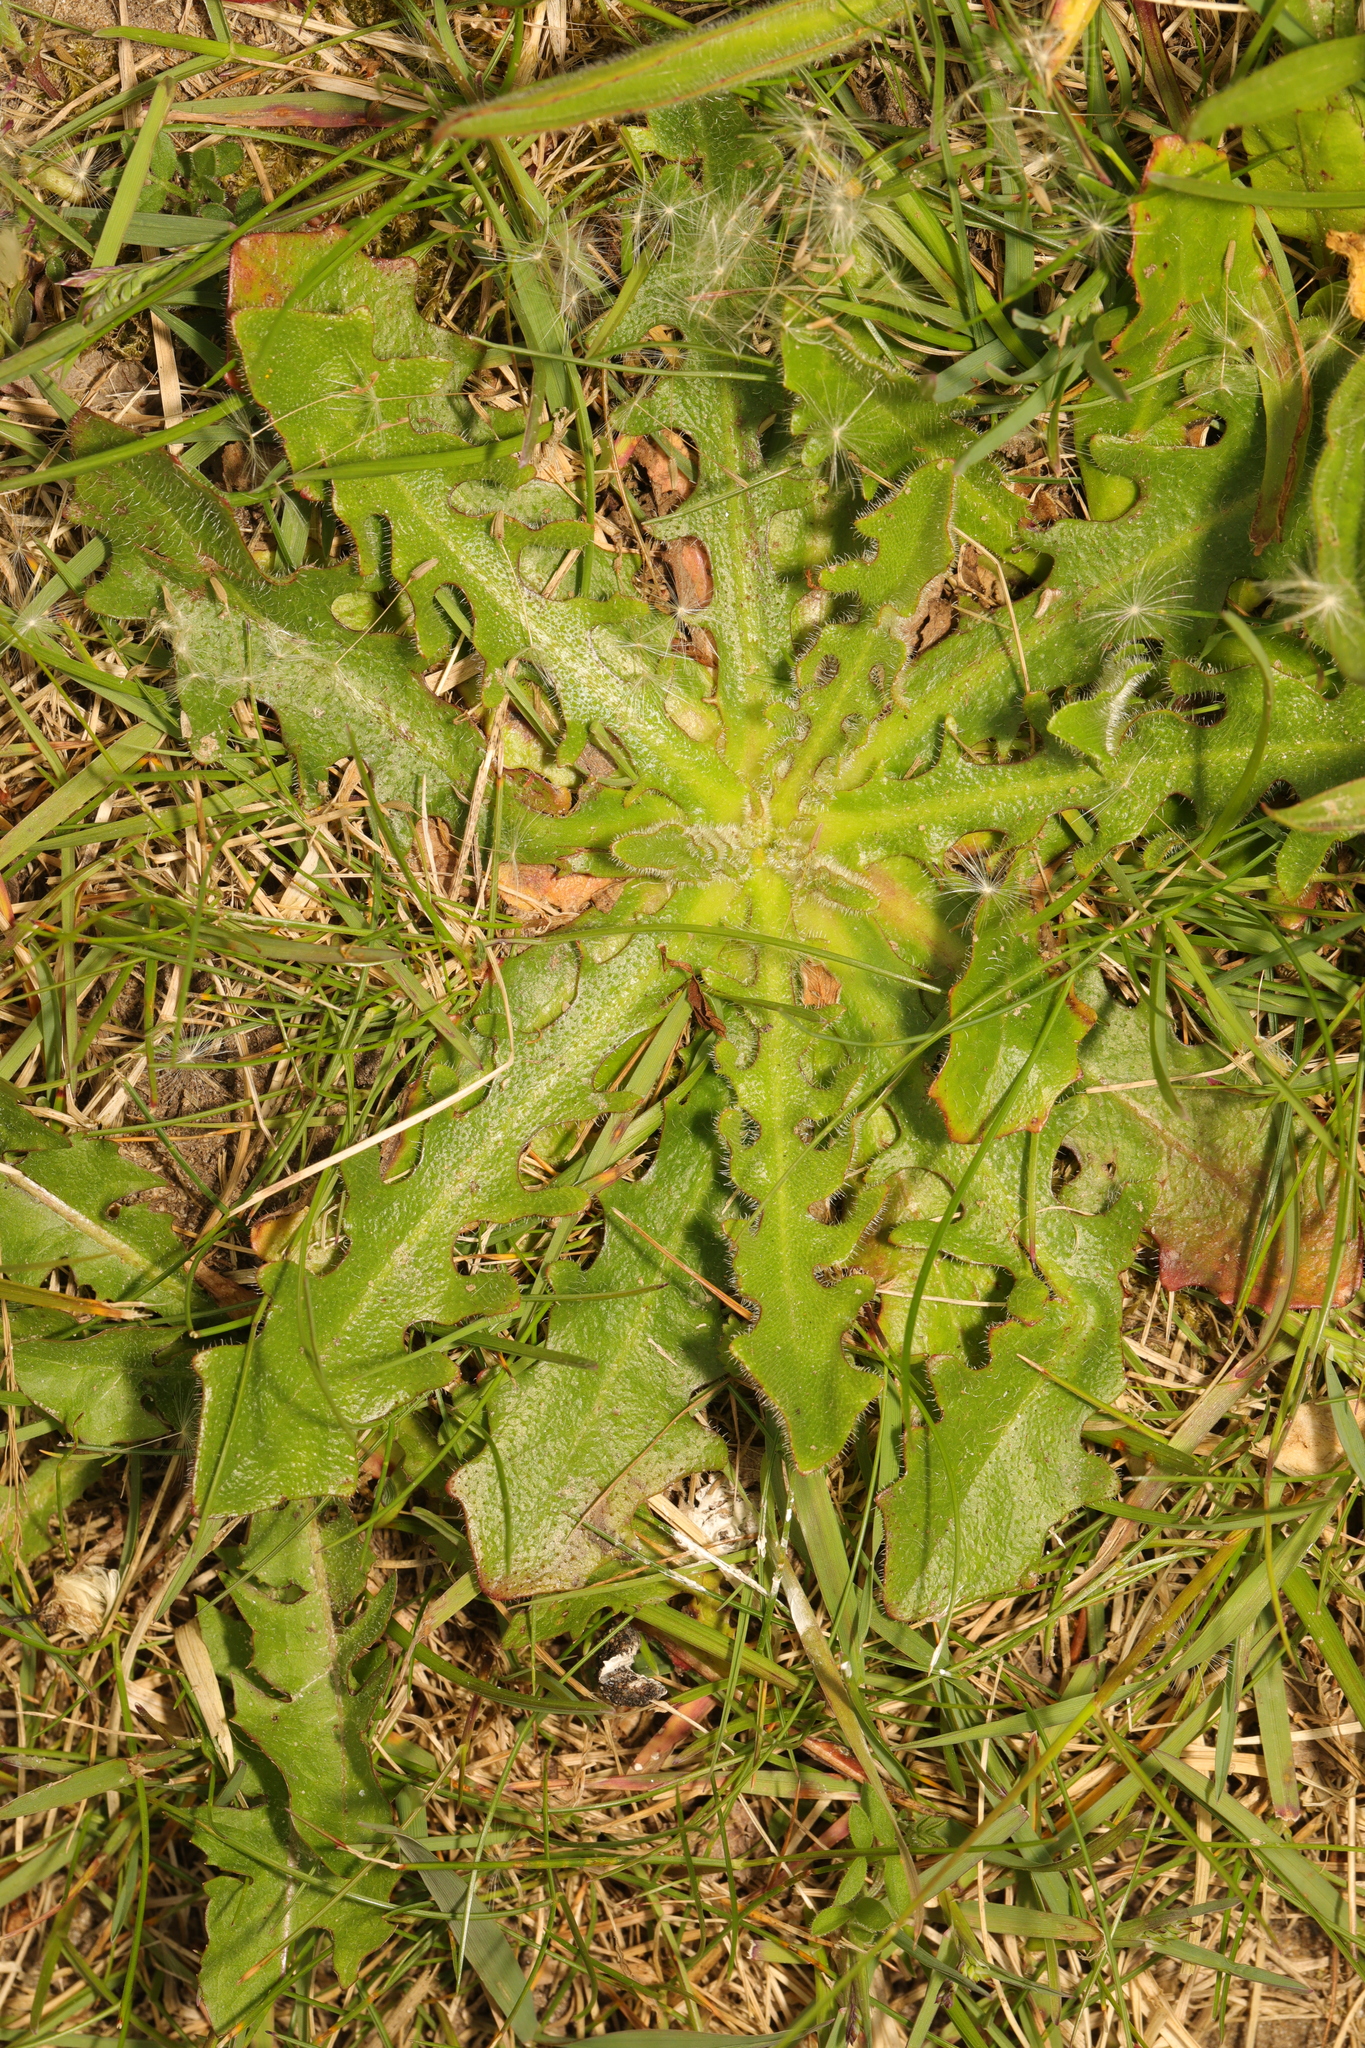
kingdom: Plantae
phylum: Tracheophyta
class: Magnoliopsida
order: Asterales
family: Asteraceae
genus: Hypochaeris
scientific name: Hypochaeris radicata
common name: Flatweed
